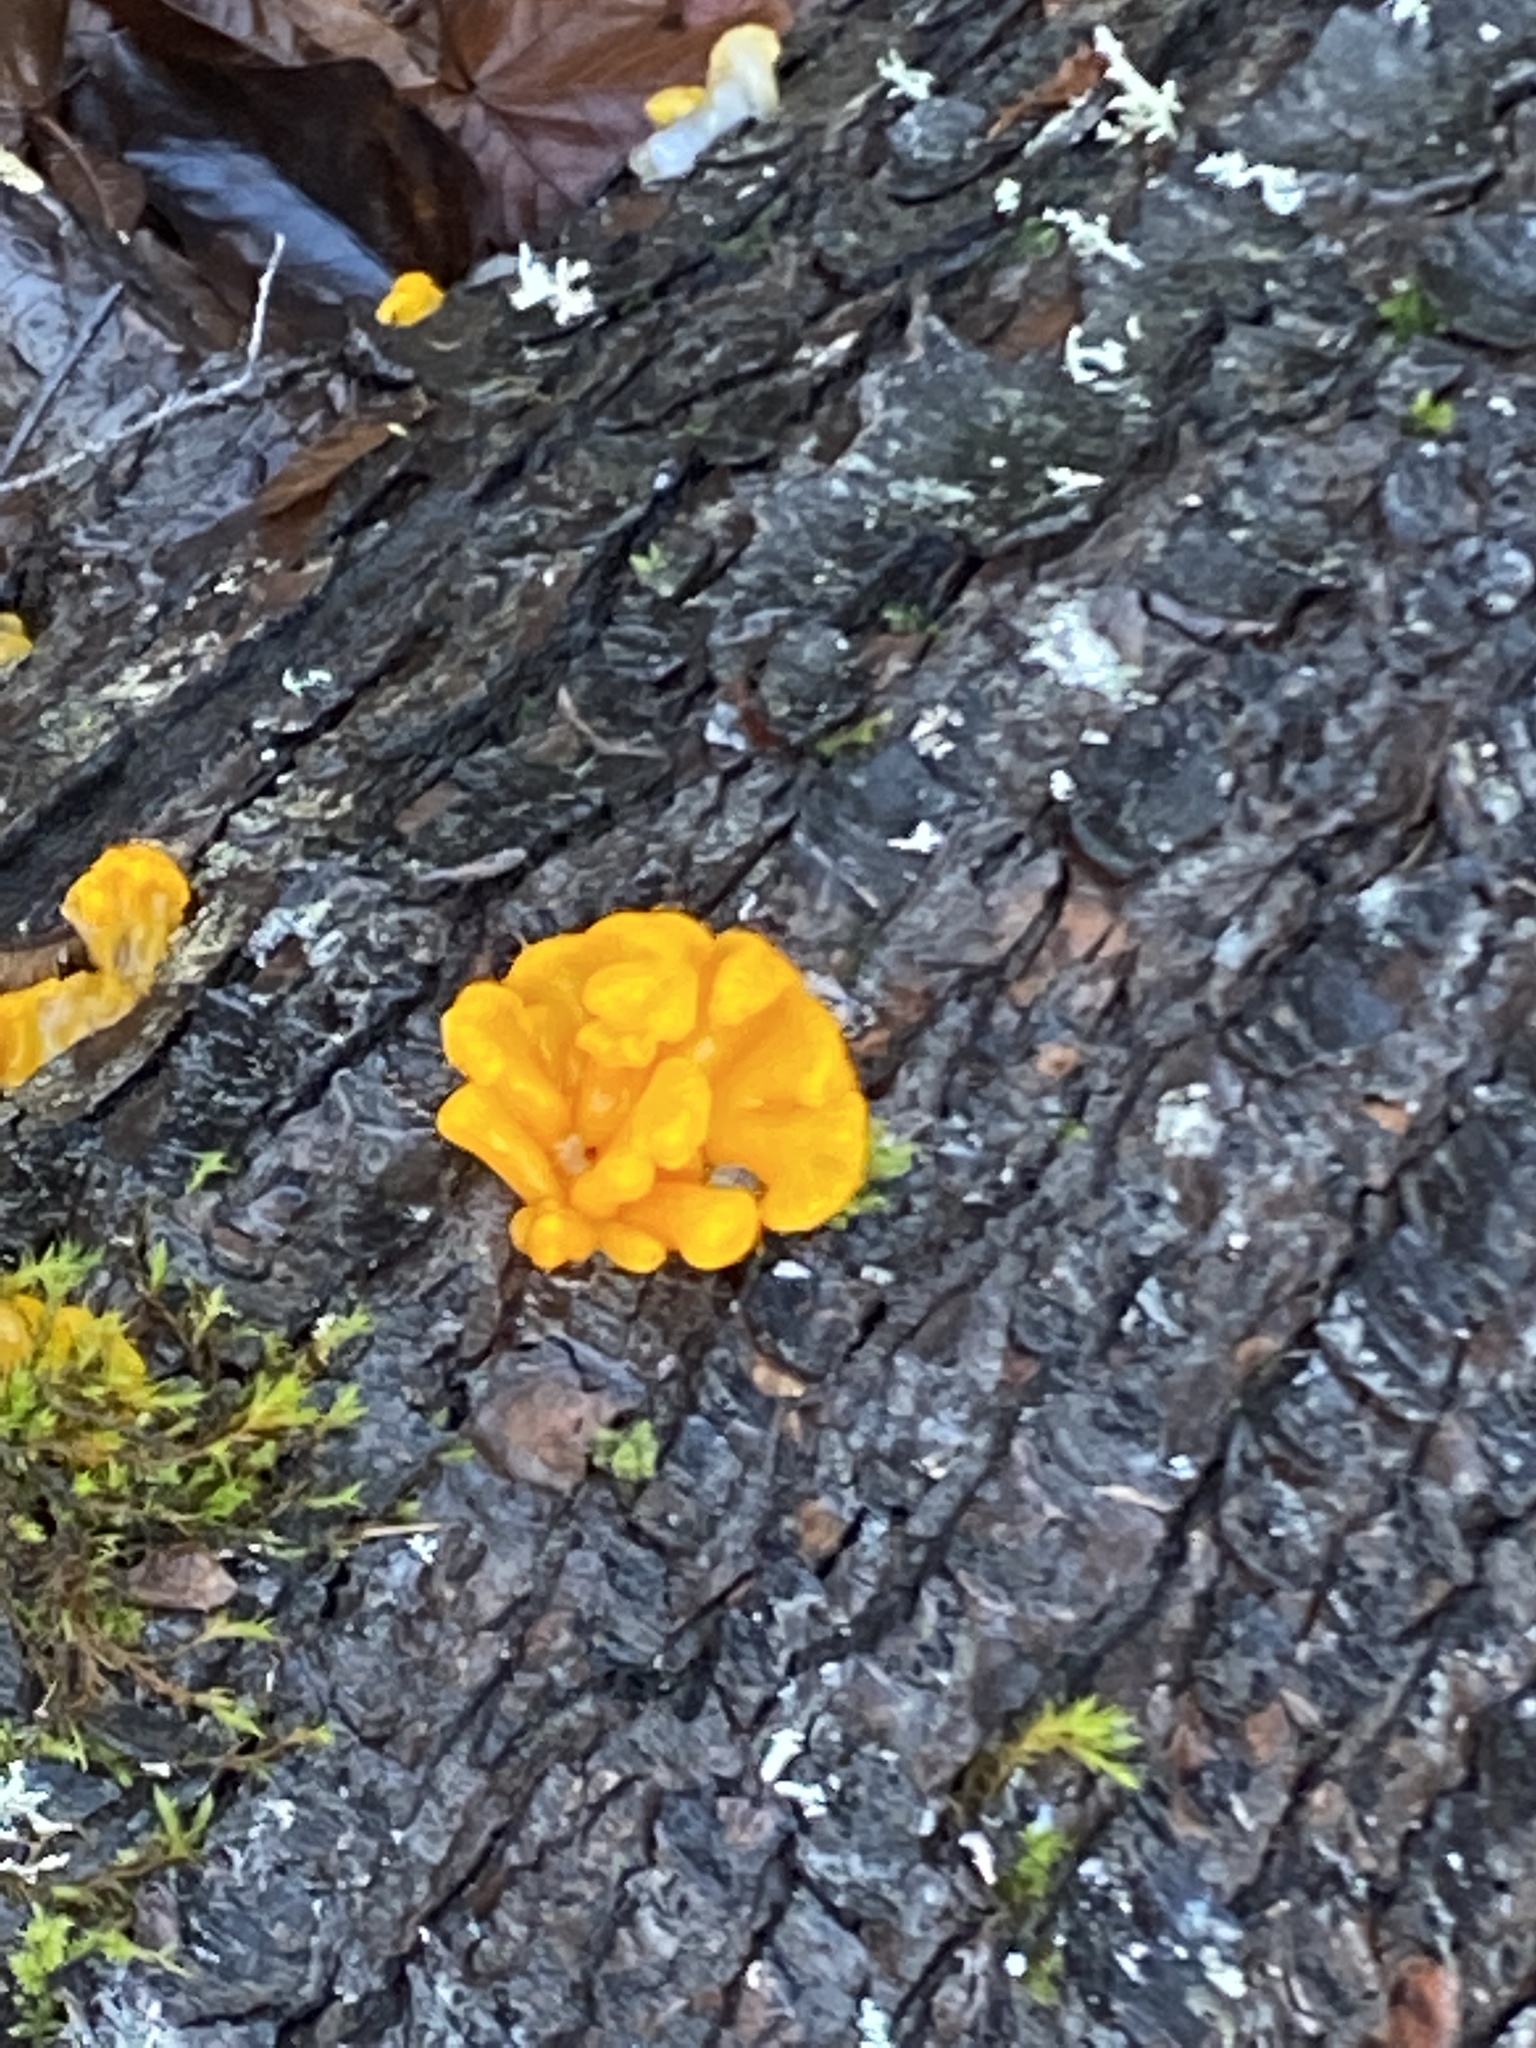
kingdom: Fungi
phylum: Basidiomycota
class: Dacrymycetes
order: Dacrymycetales
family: Dacrymycetaceae
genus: Dacrymyces
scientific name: Dacrymyces chrysospermus
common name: Orange jelly spot
